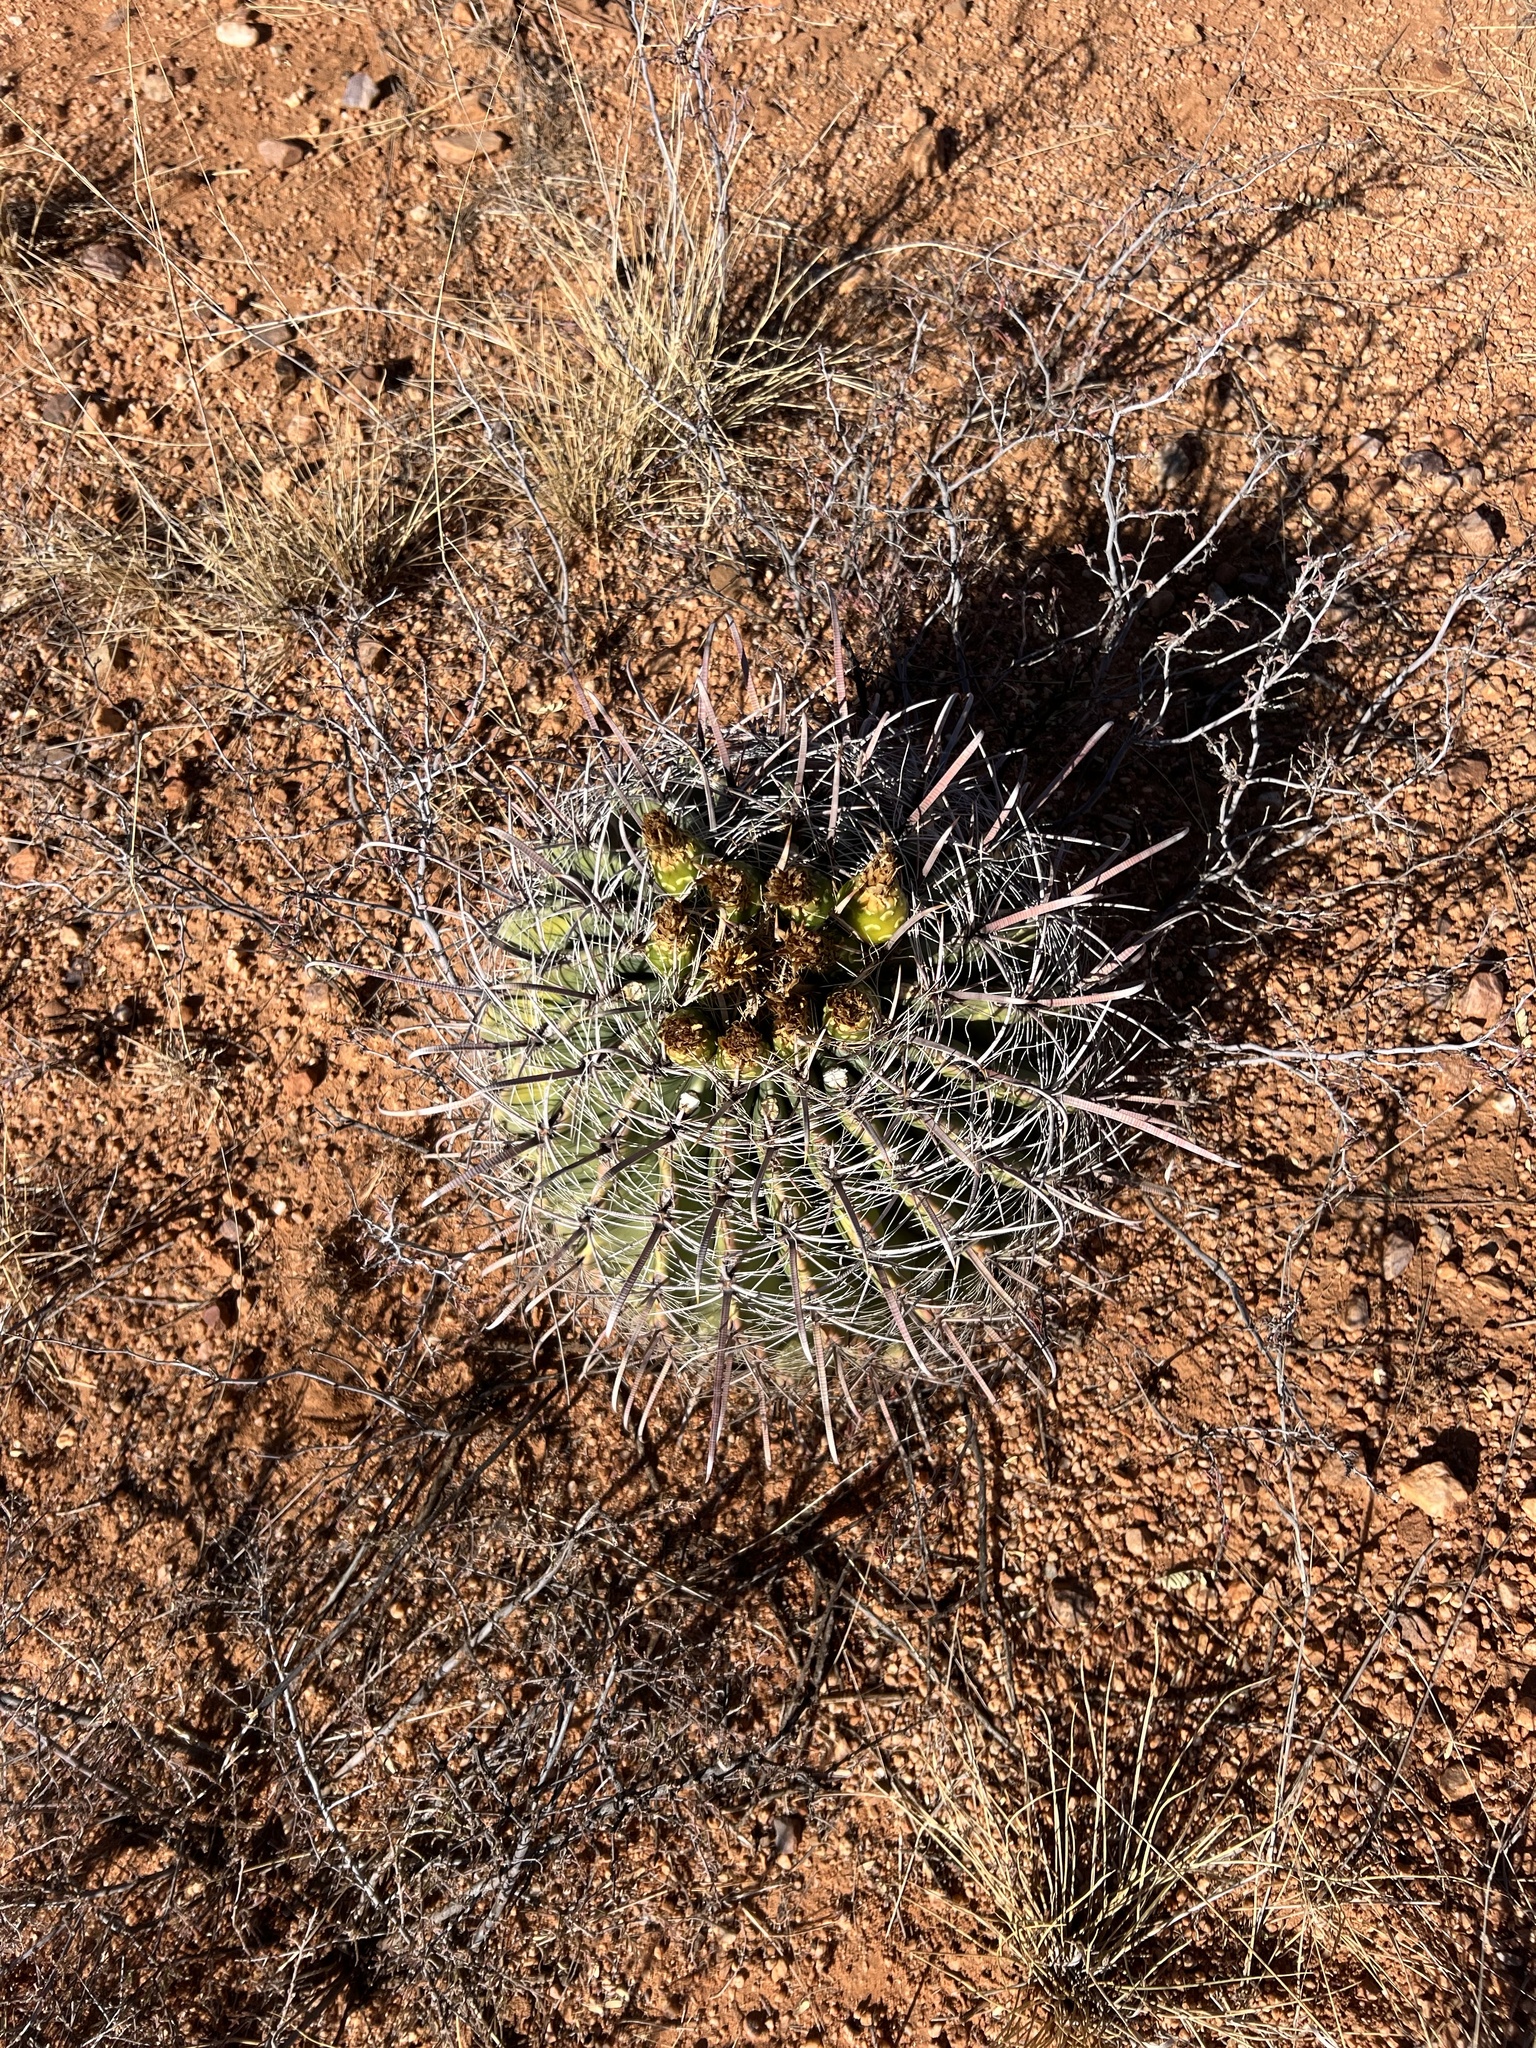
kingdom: Plantae
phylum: Tracheophyta
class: Magnoliopsida
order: Caryophyllales
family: Cactaceae
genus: Ferocactus
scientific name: Ferocactus wislizeni
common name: Candy barrel cactus
